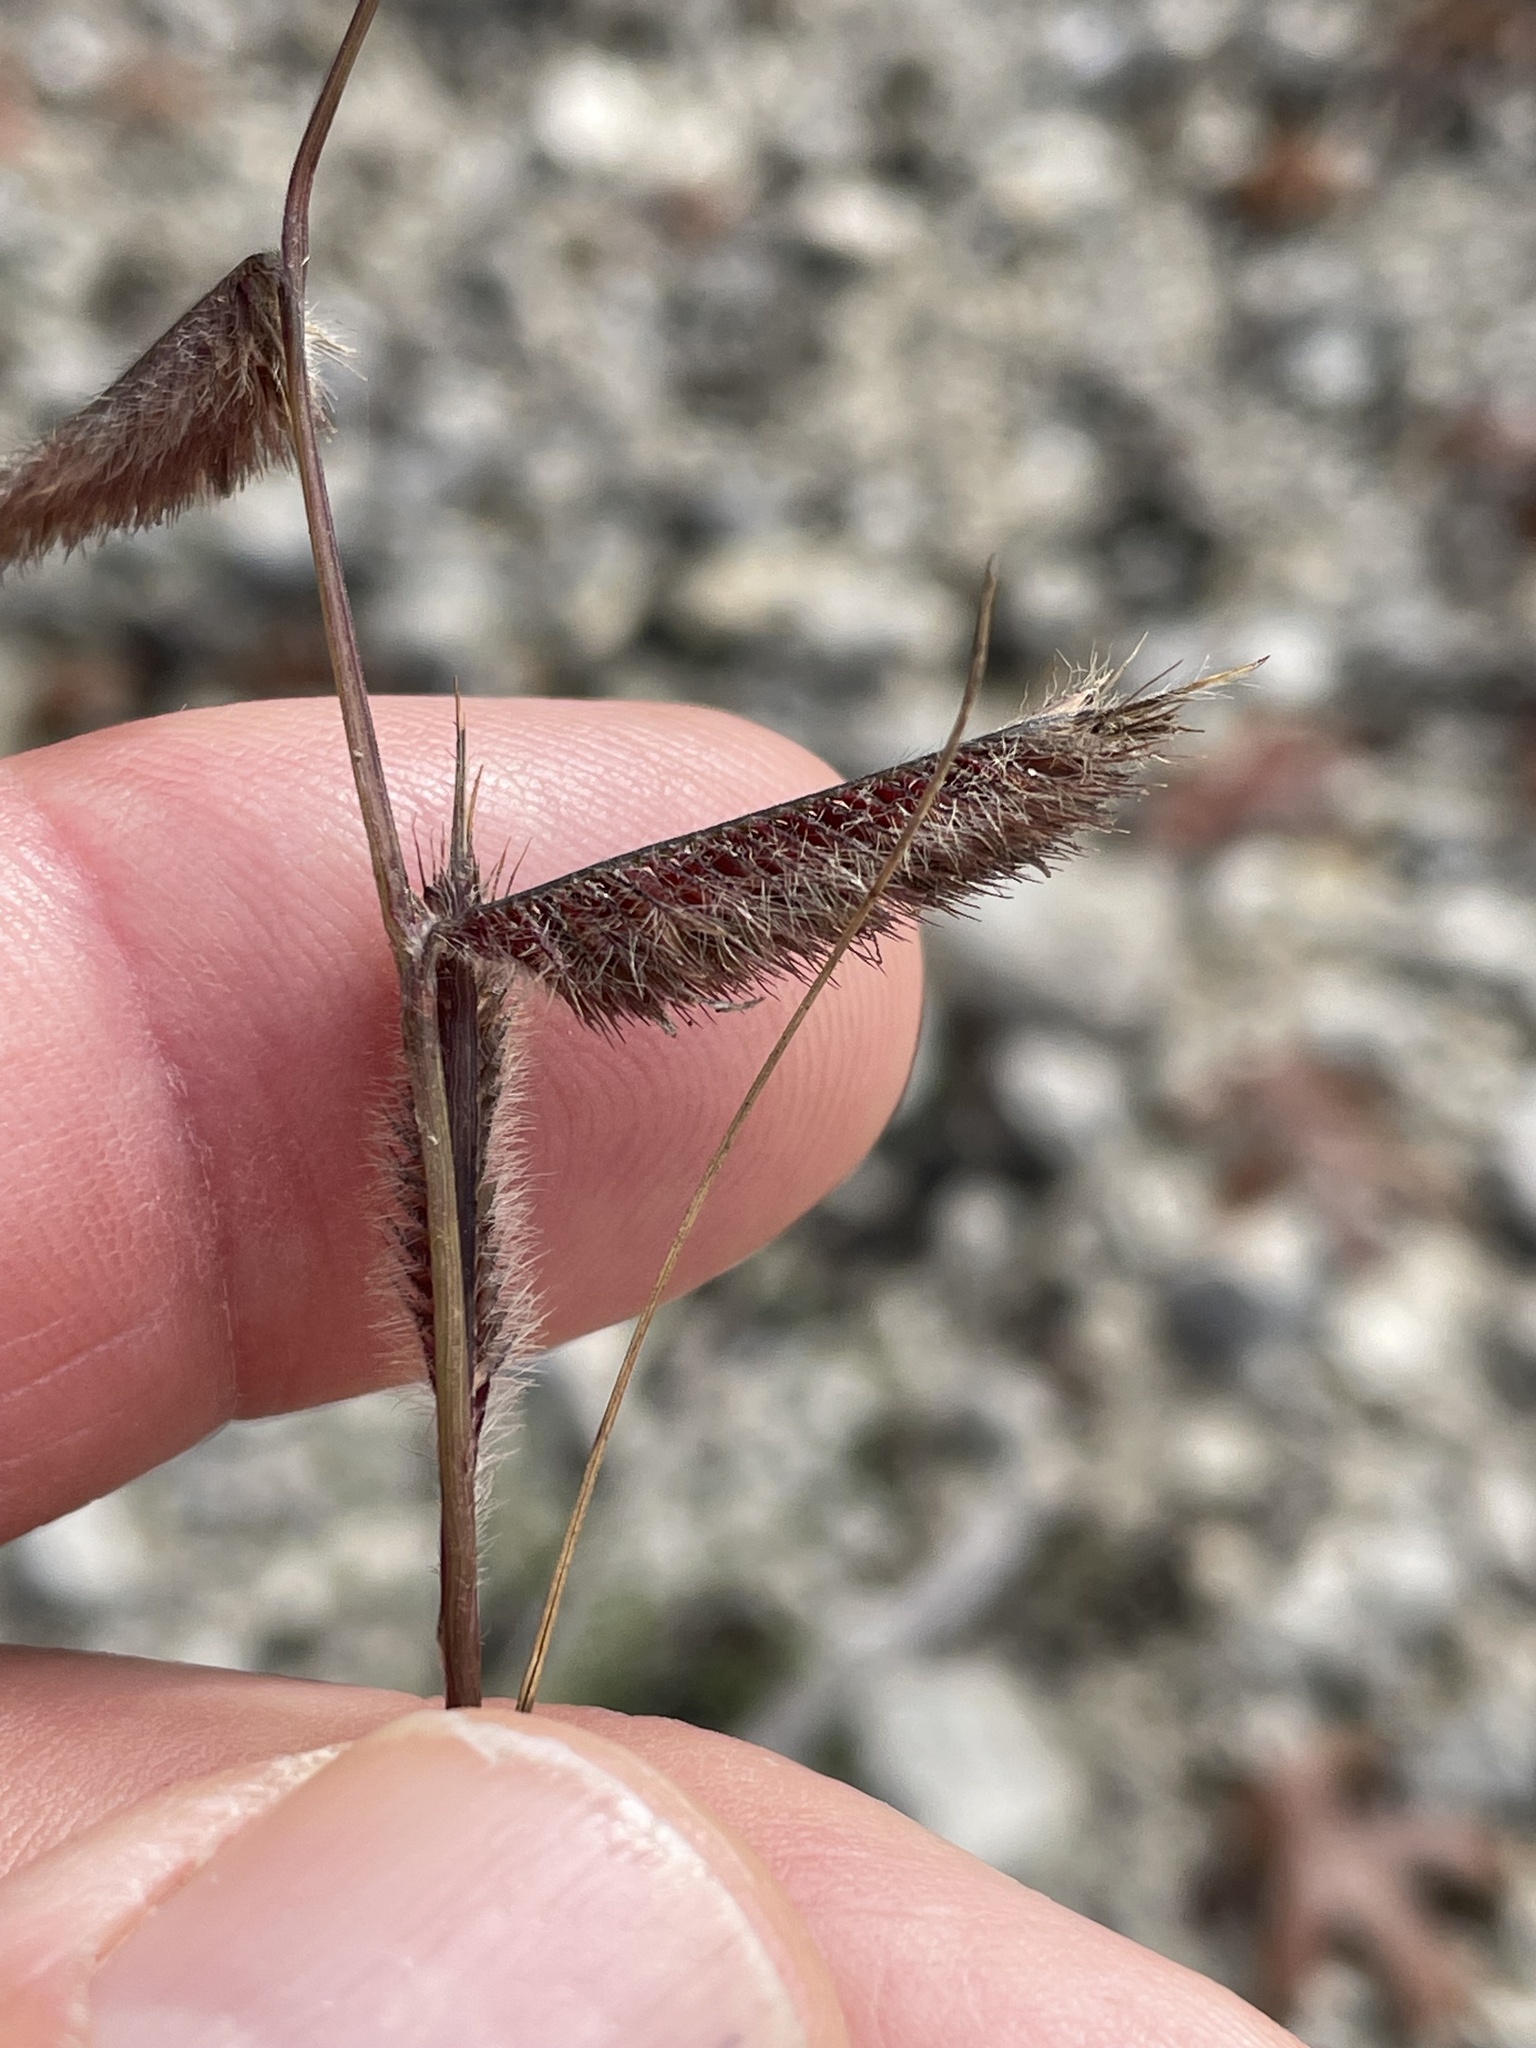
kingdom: Plantae
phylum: Tracheophyta
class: Liliopsida
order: Poales
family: Poaceae
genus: Bouteloua
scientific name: Bouteloua pectinata
